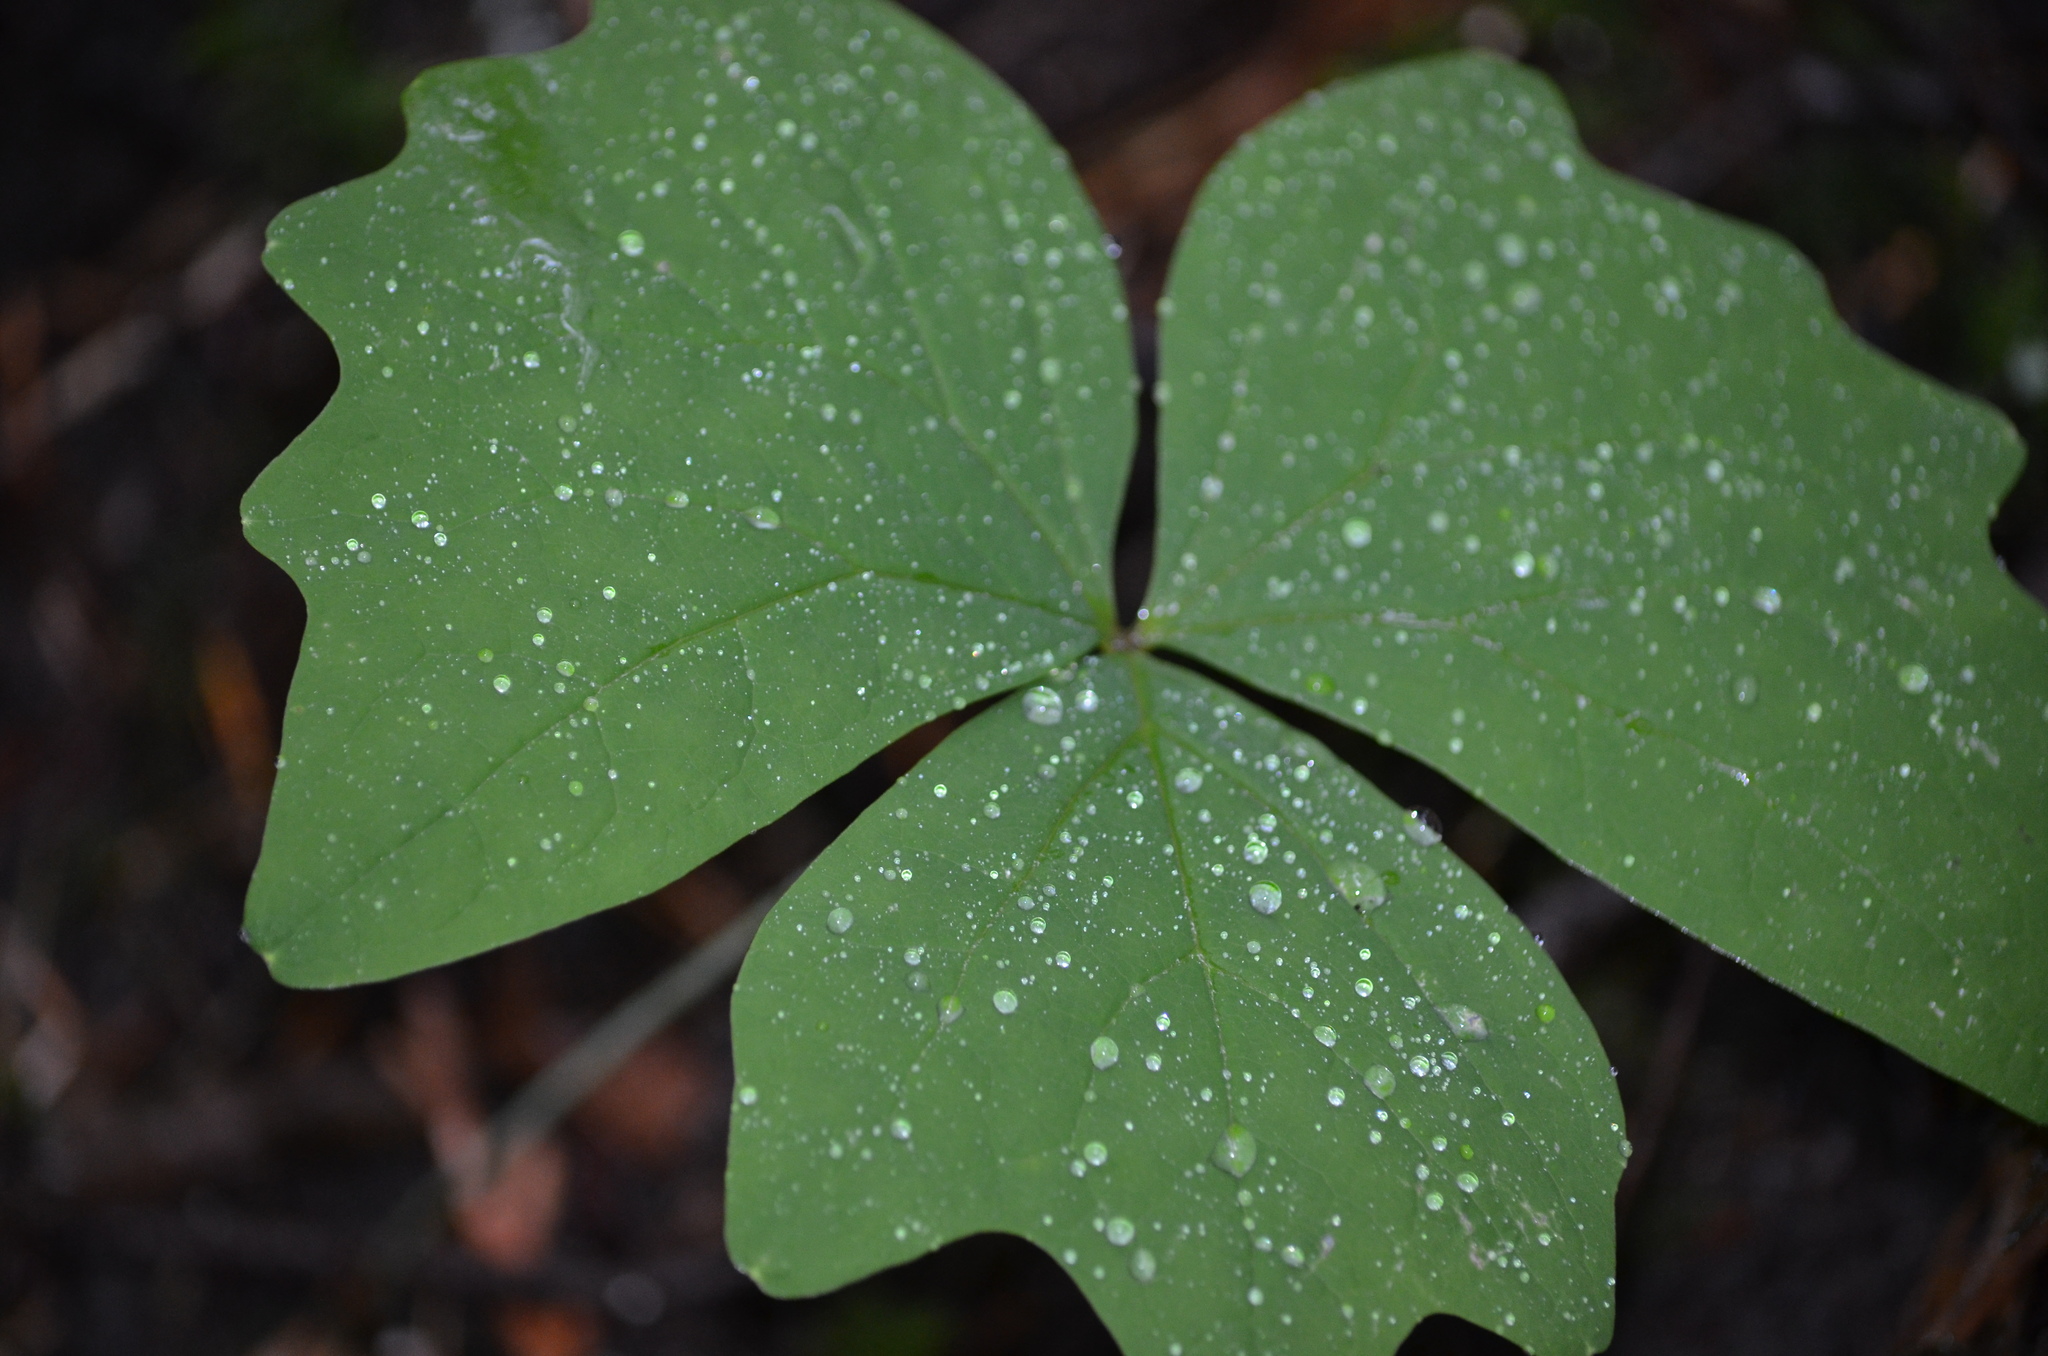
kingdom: Plantae
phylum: Tracheophyta
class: Magnoliopsida
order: Ranunculales
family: Berberidaceae
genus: Achlys
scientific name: Achlys triphylla
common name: Vanilla-leaf
